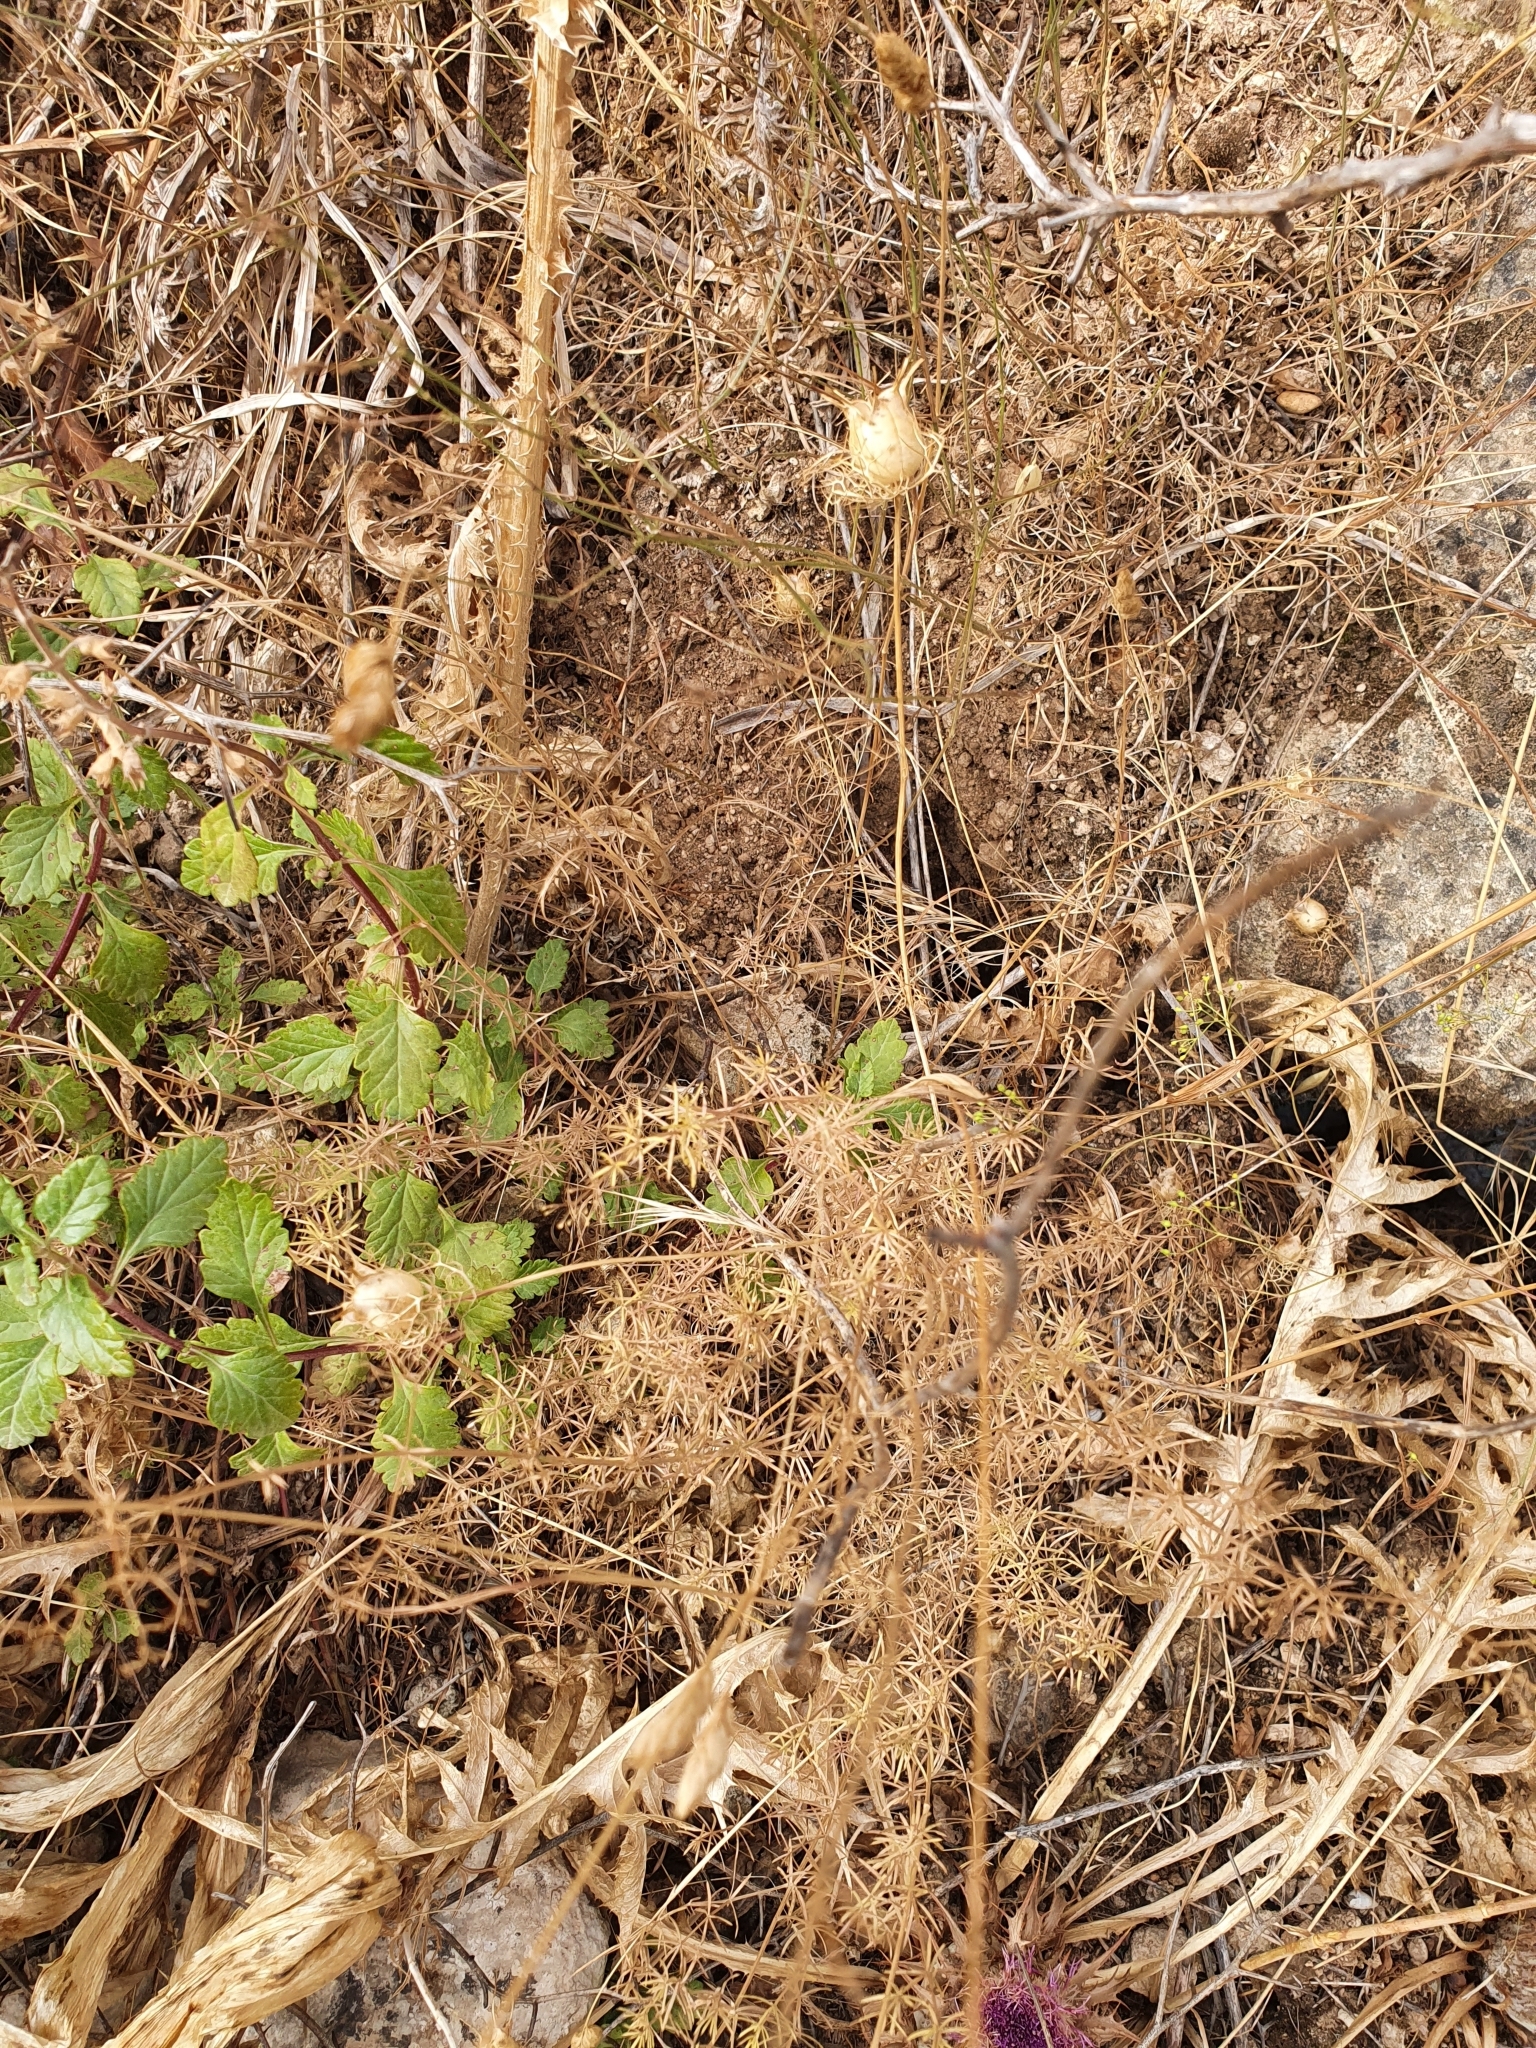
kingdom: Plantae
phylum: Tracheophyta
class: Magnoliopsida
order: Ranunculales
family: Ranunculaceae
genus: Nigella
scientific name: Nigella damascena
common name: Love-in-a-mist
